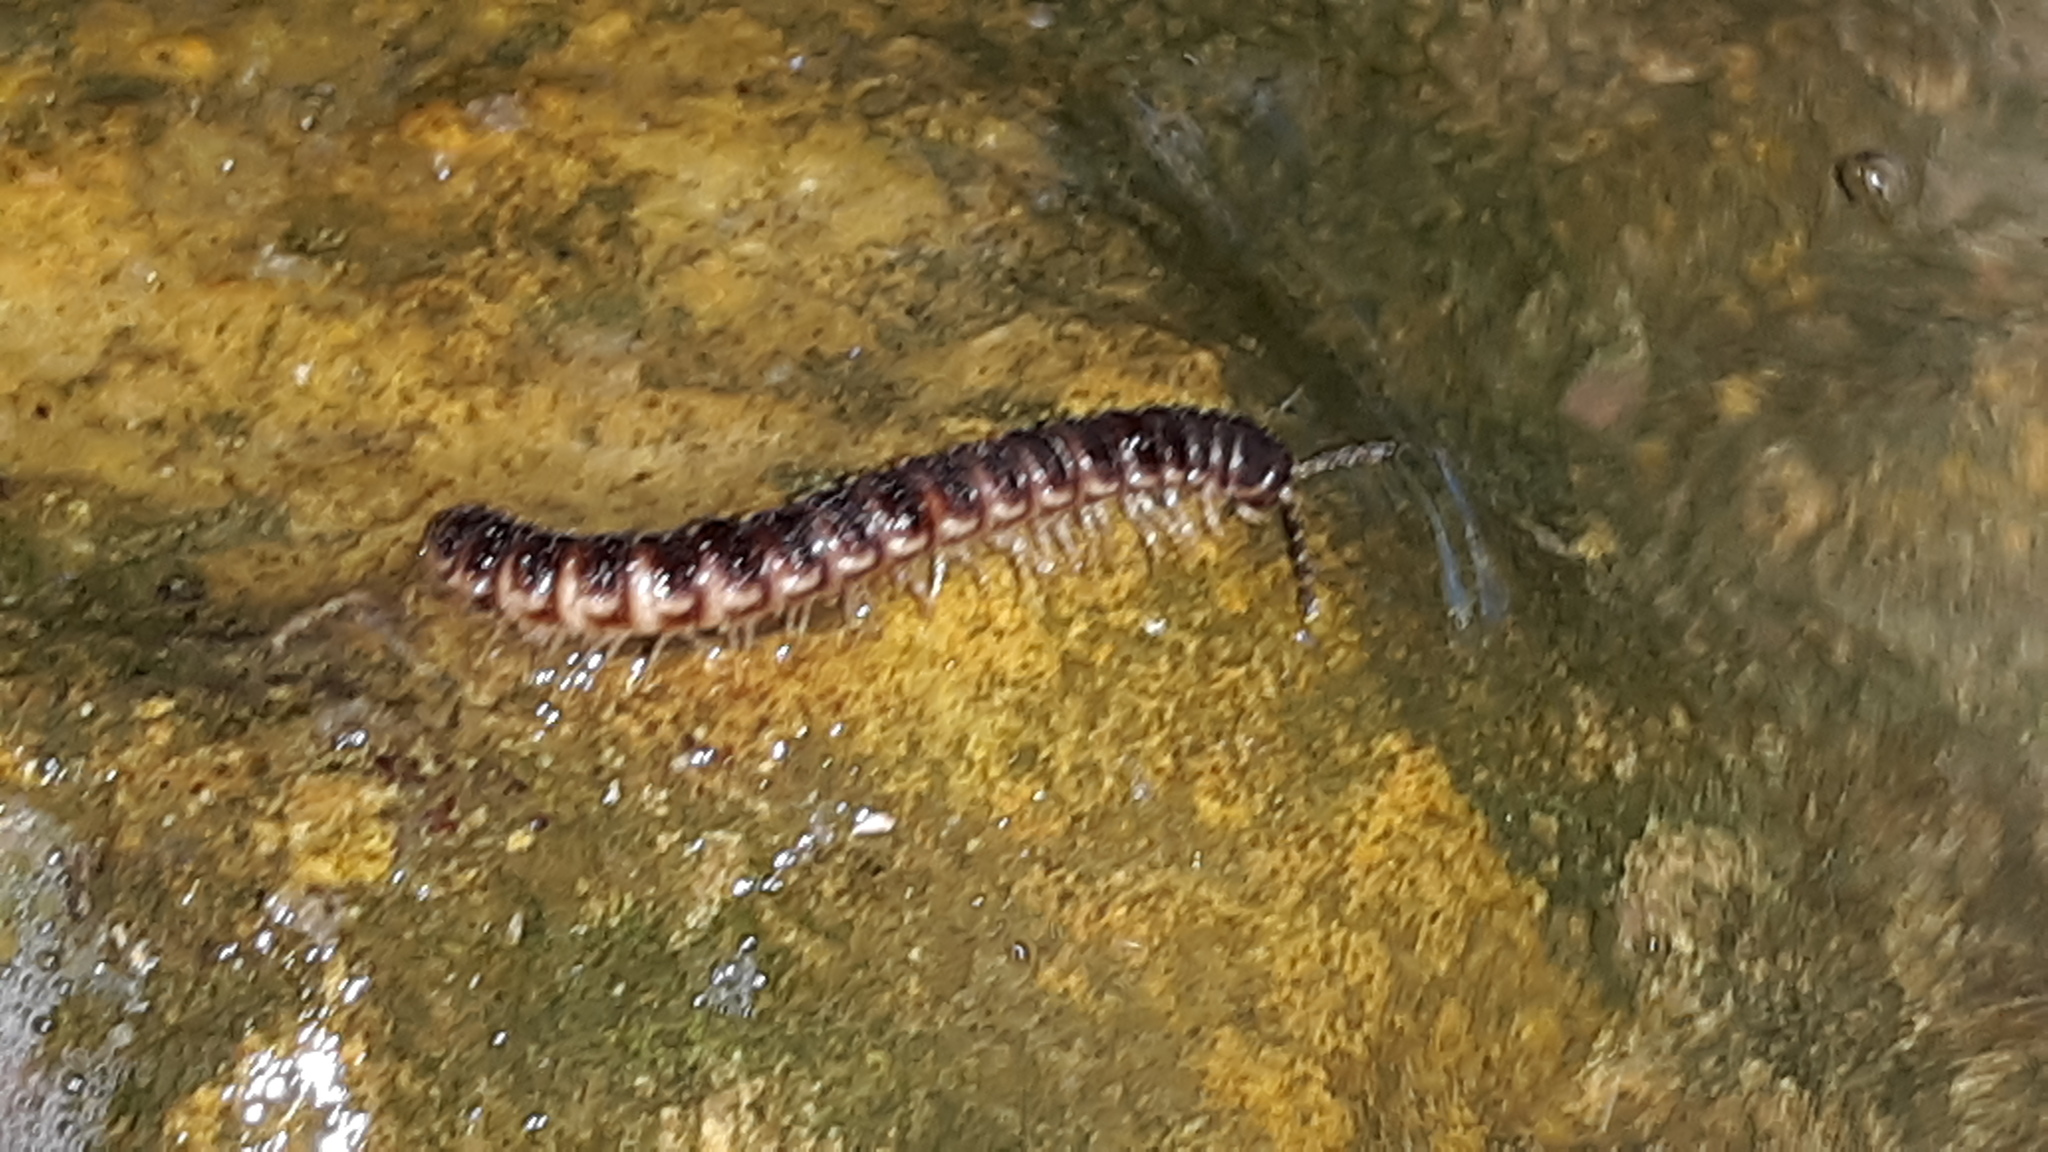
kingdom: Animalia
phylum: Arthropoda
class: Diplopoda
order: Polydesmida
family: Paradoxosomatidae
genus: Oxidus
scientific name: Oxidus gracilis
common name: Greenhouse millipede
